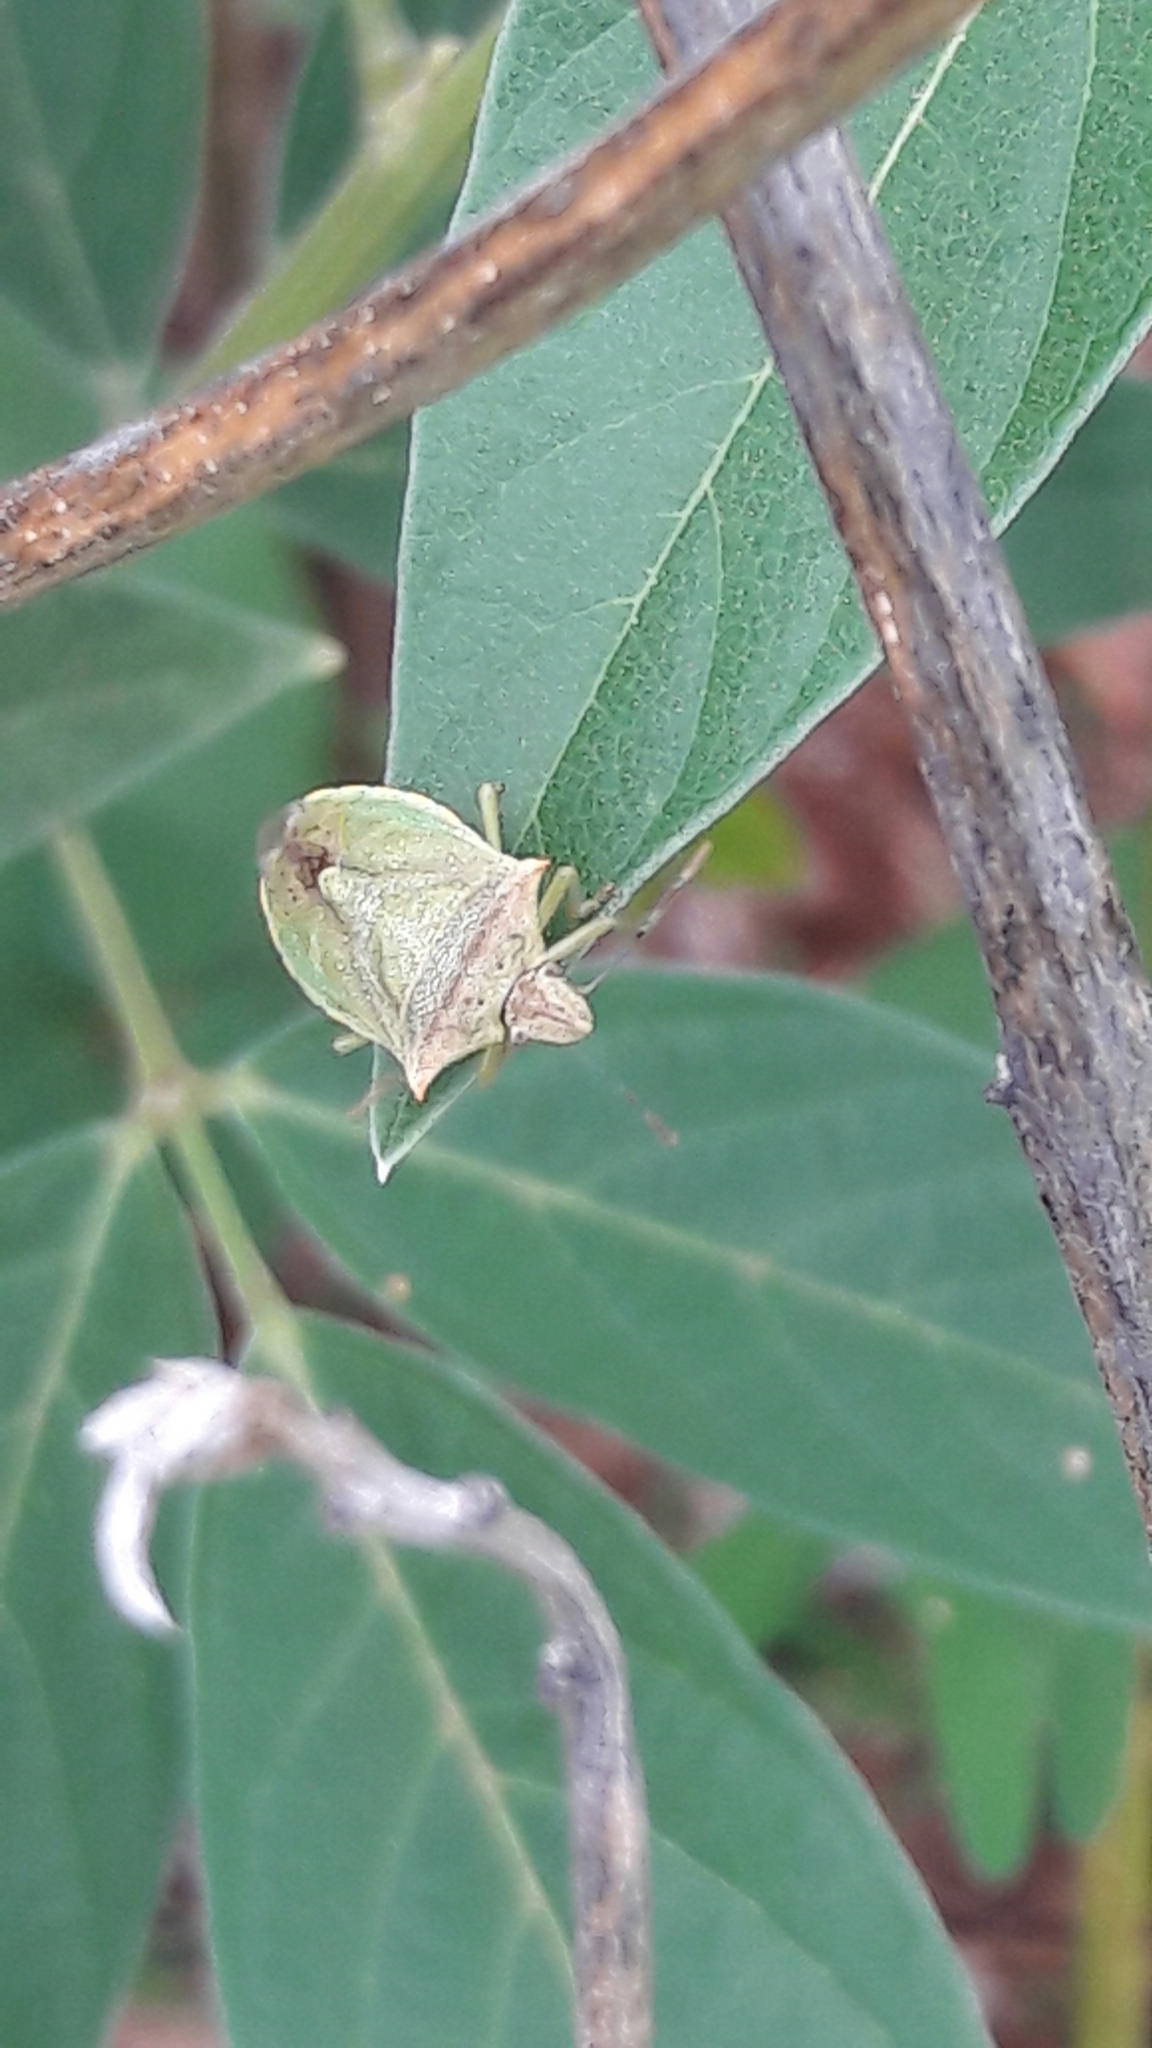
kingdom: Animalia
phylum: Arthropoda
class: Insecta
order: Hemiptera
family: Pentatomidae
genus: Thyanta
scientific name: Thyanta perditor
